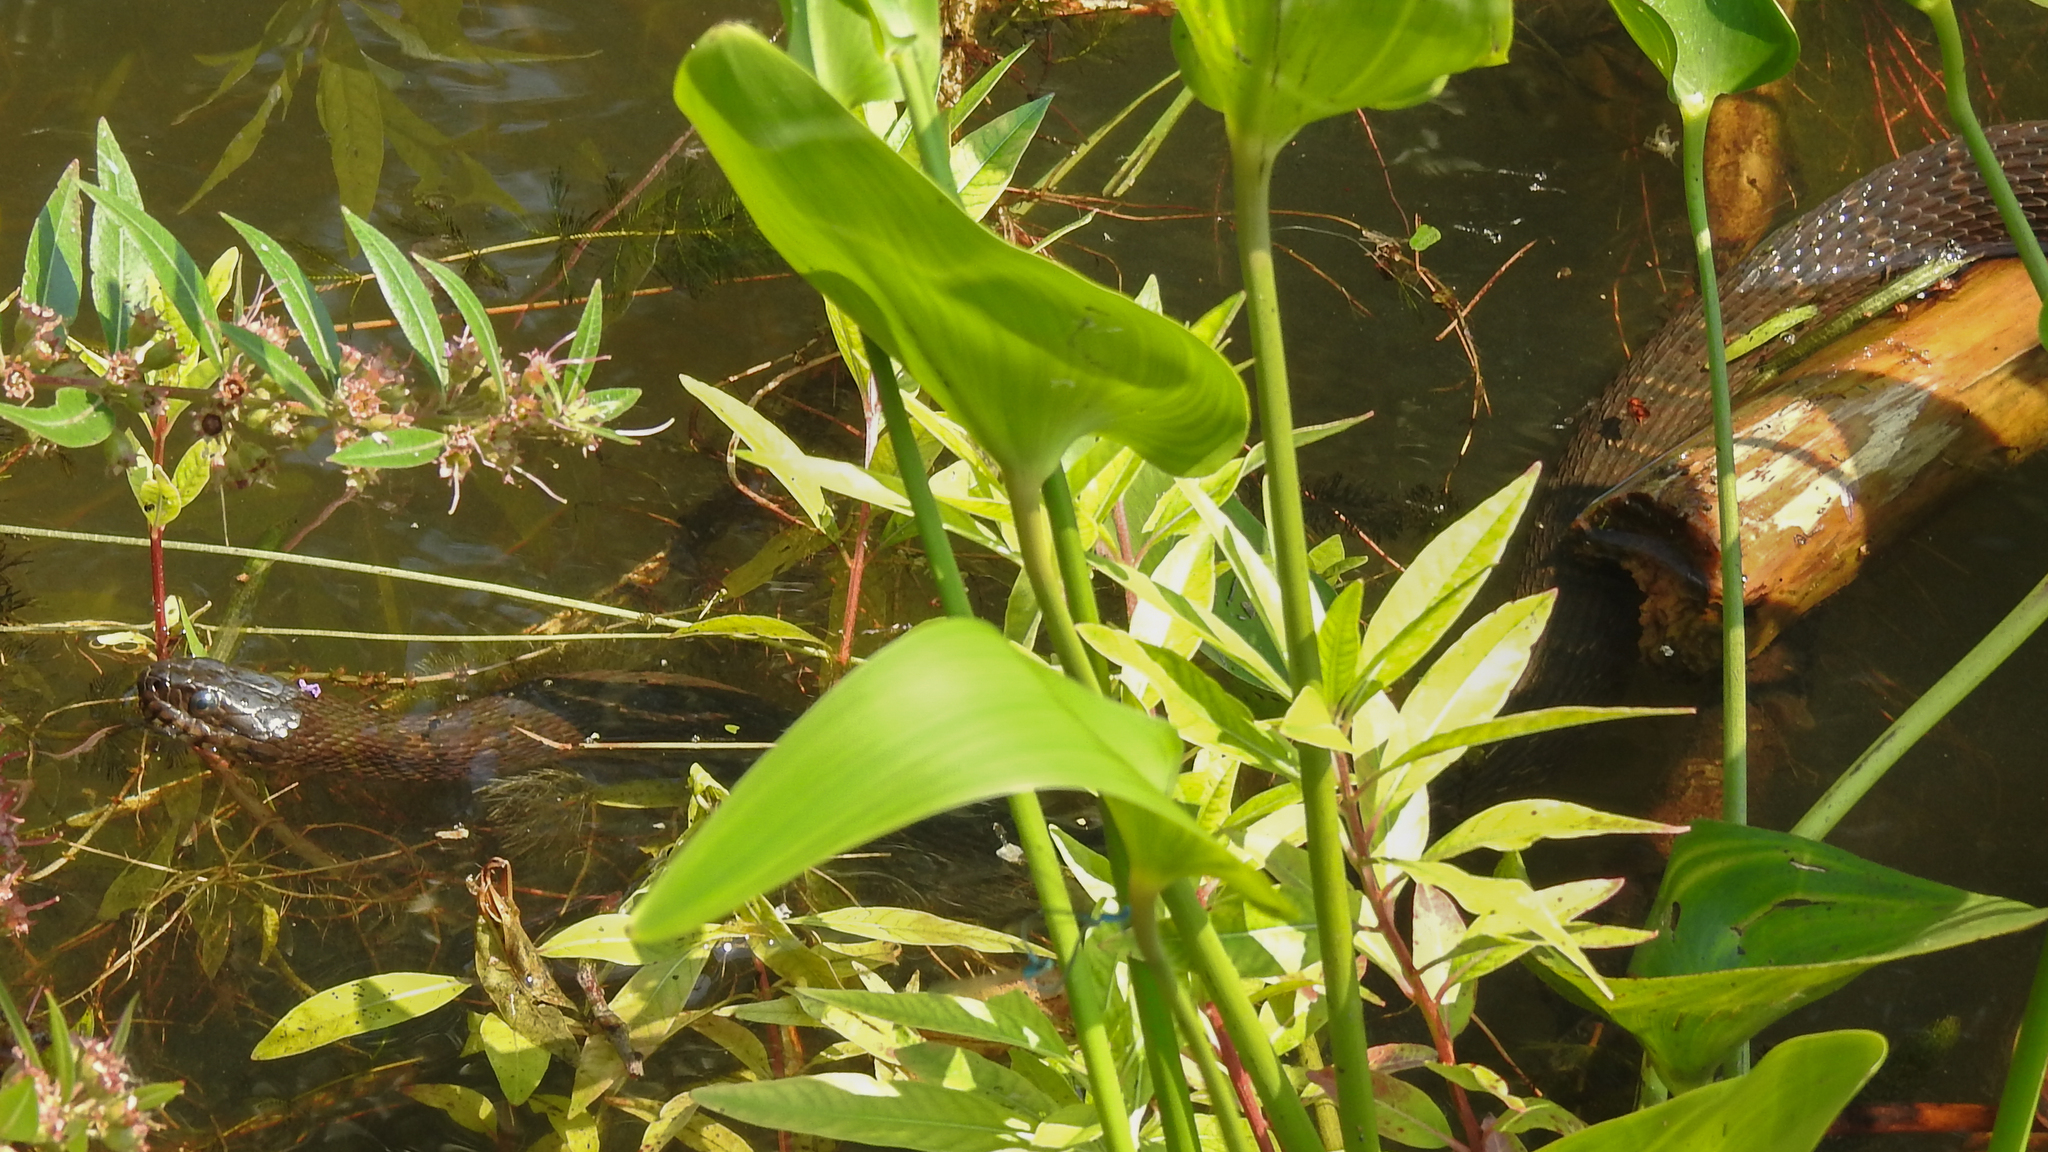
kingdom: Animalia
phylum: Chordata
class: Squamata
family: Colubridae
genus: Nerodia
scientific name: Nerodia sipedon
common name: Northern water snake
